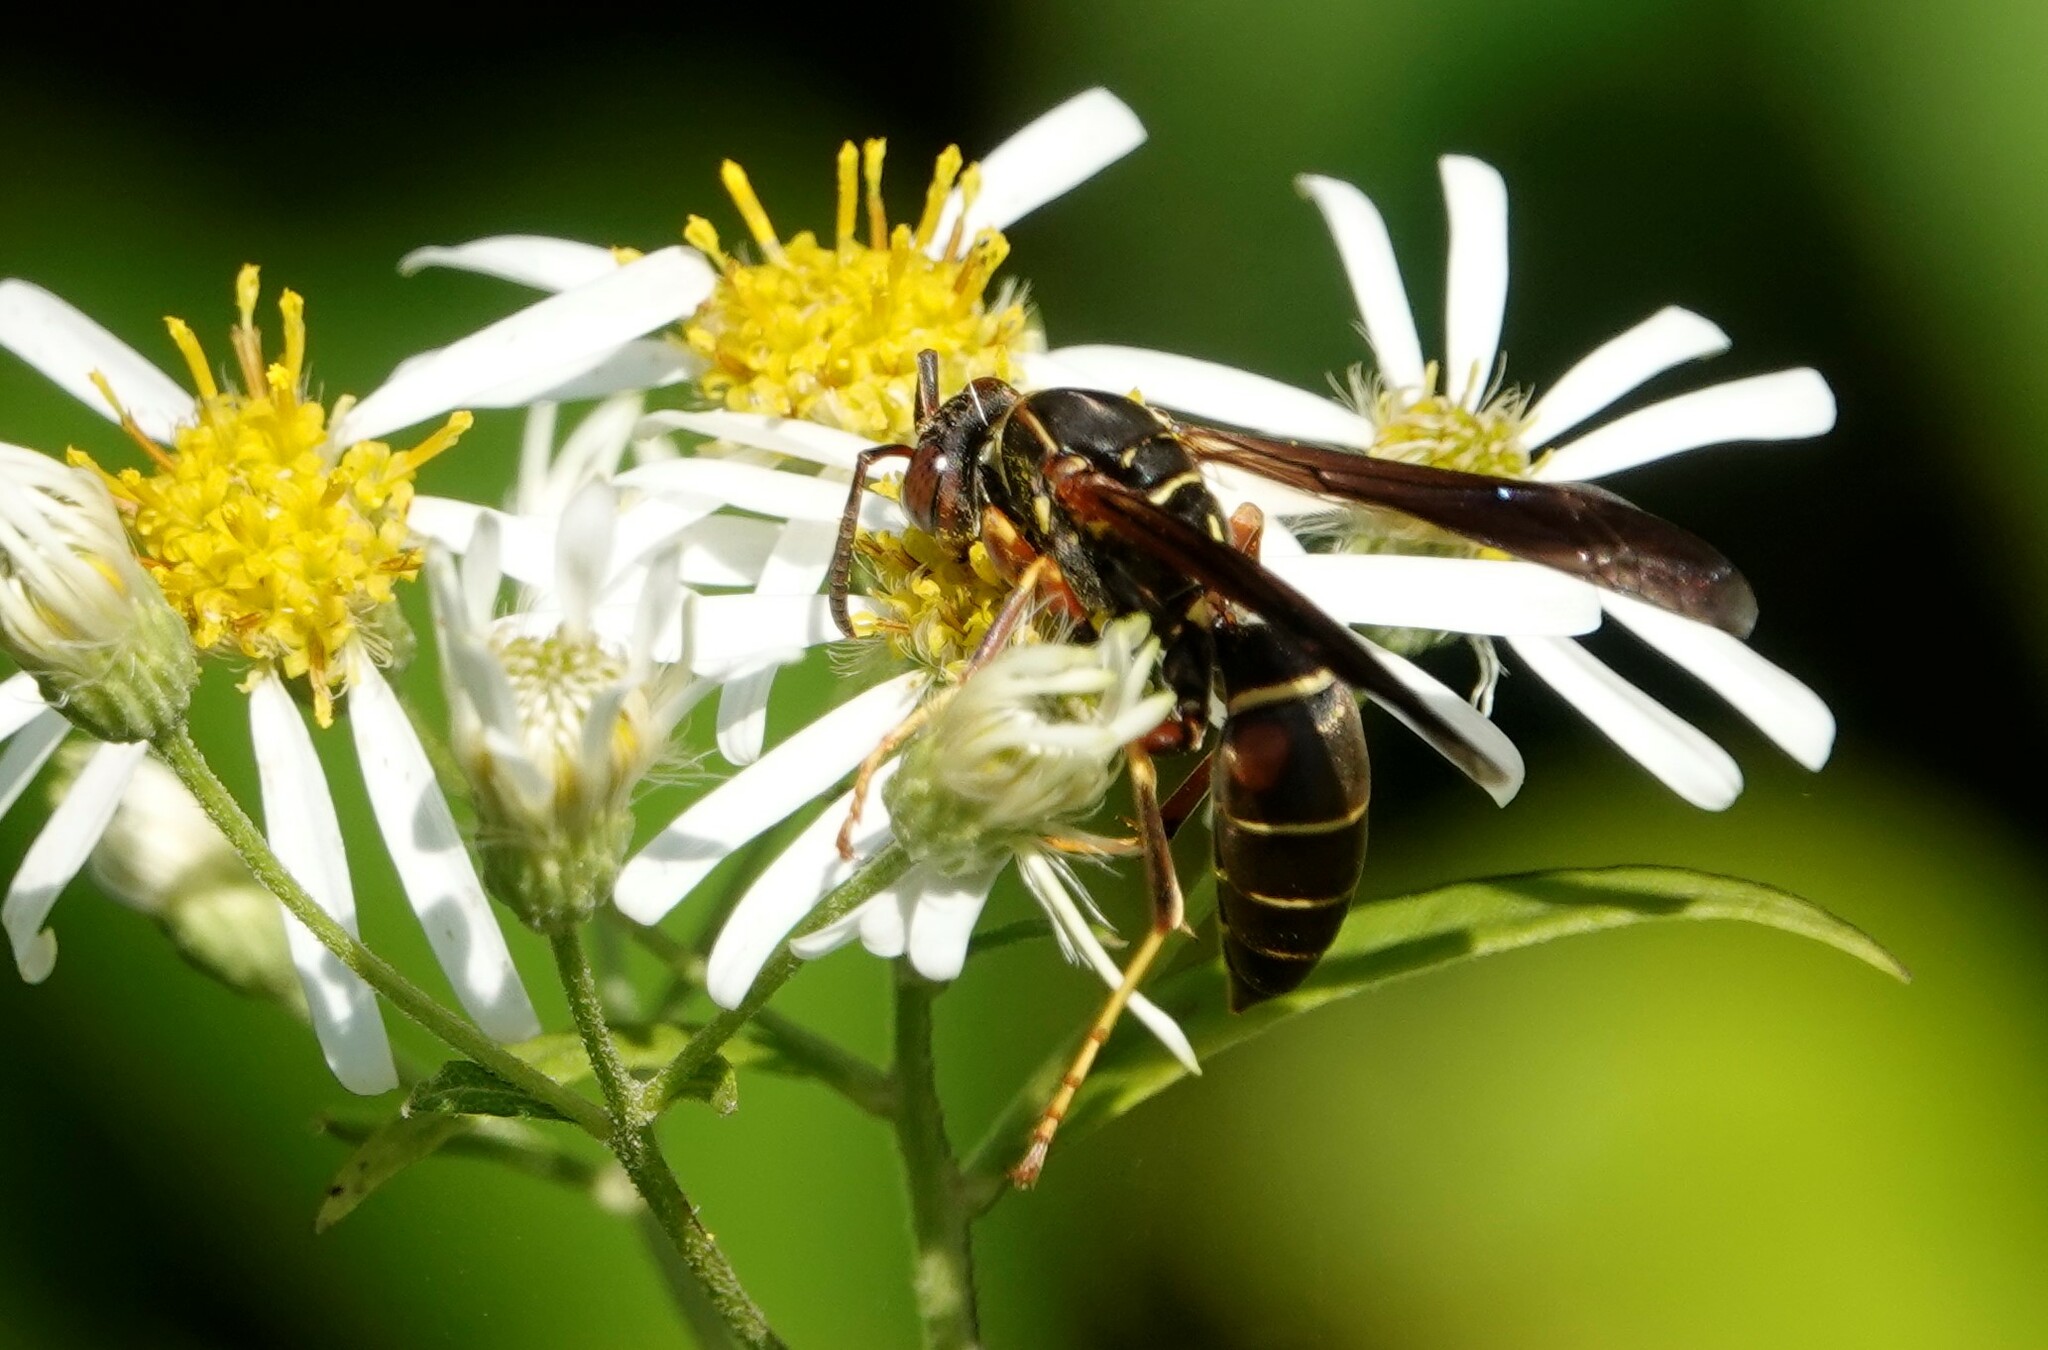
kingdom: Animalia
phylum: Arthropoda
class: Insecta
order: Hymenoptera
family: Eumenidae
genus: Polistes
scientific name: Polistes fuscatus
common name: Dark paper wasp
